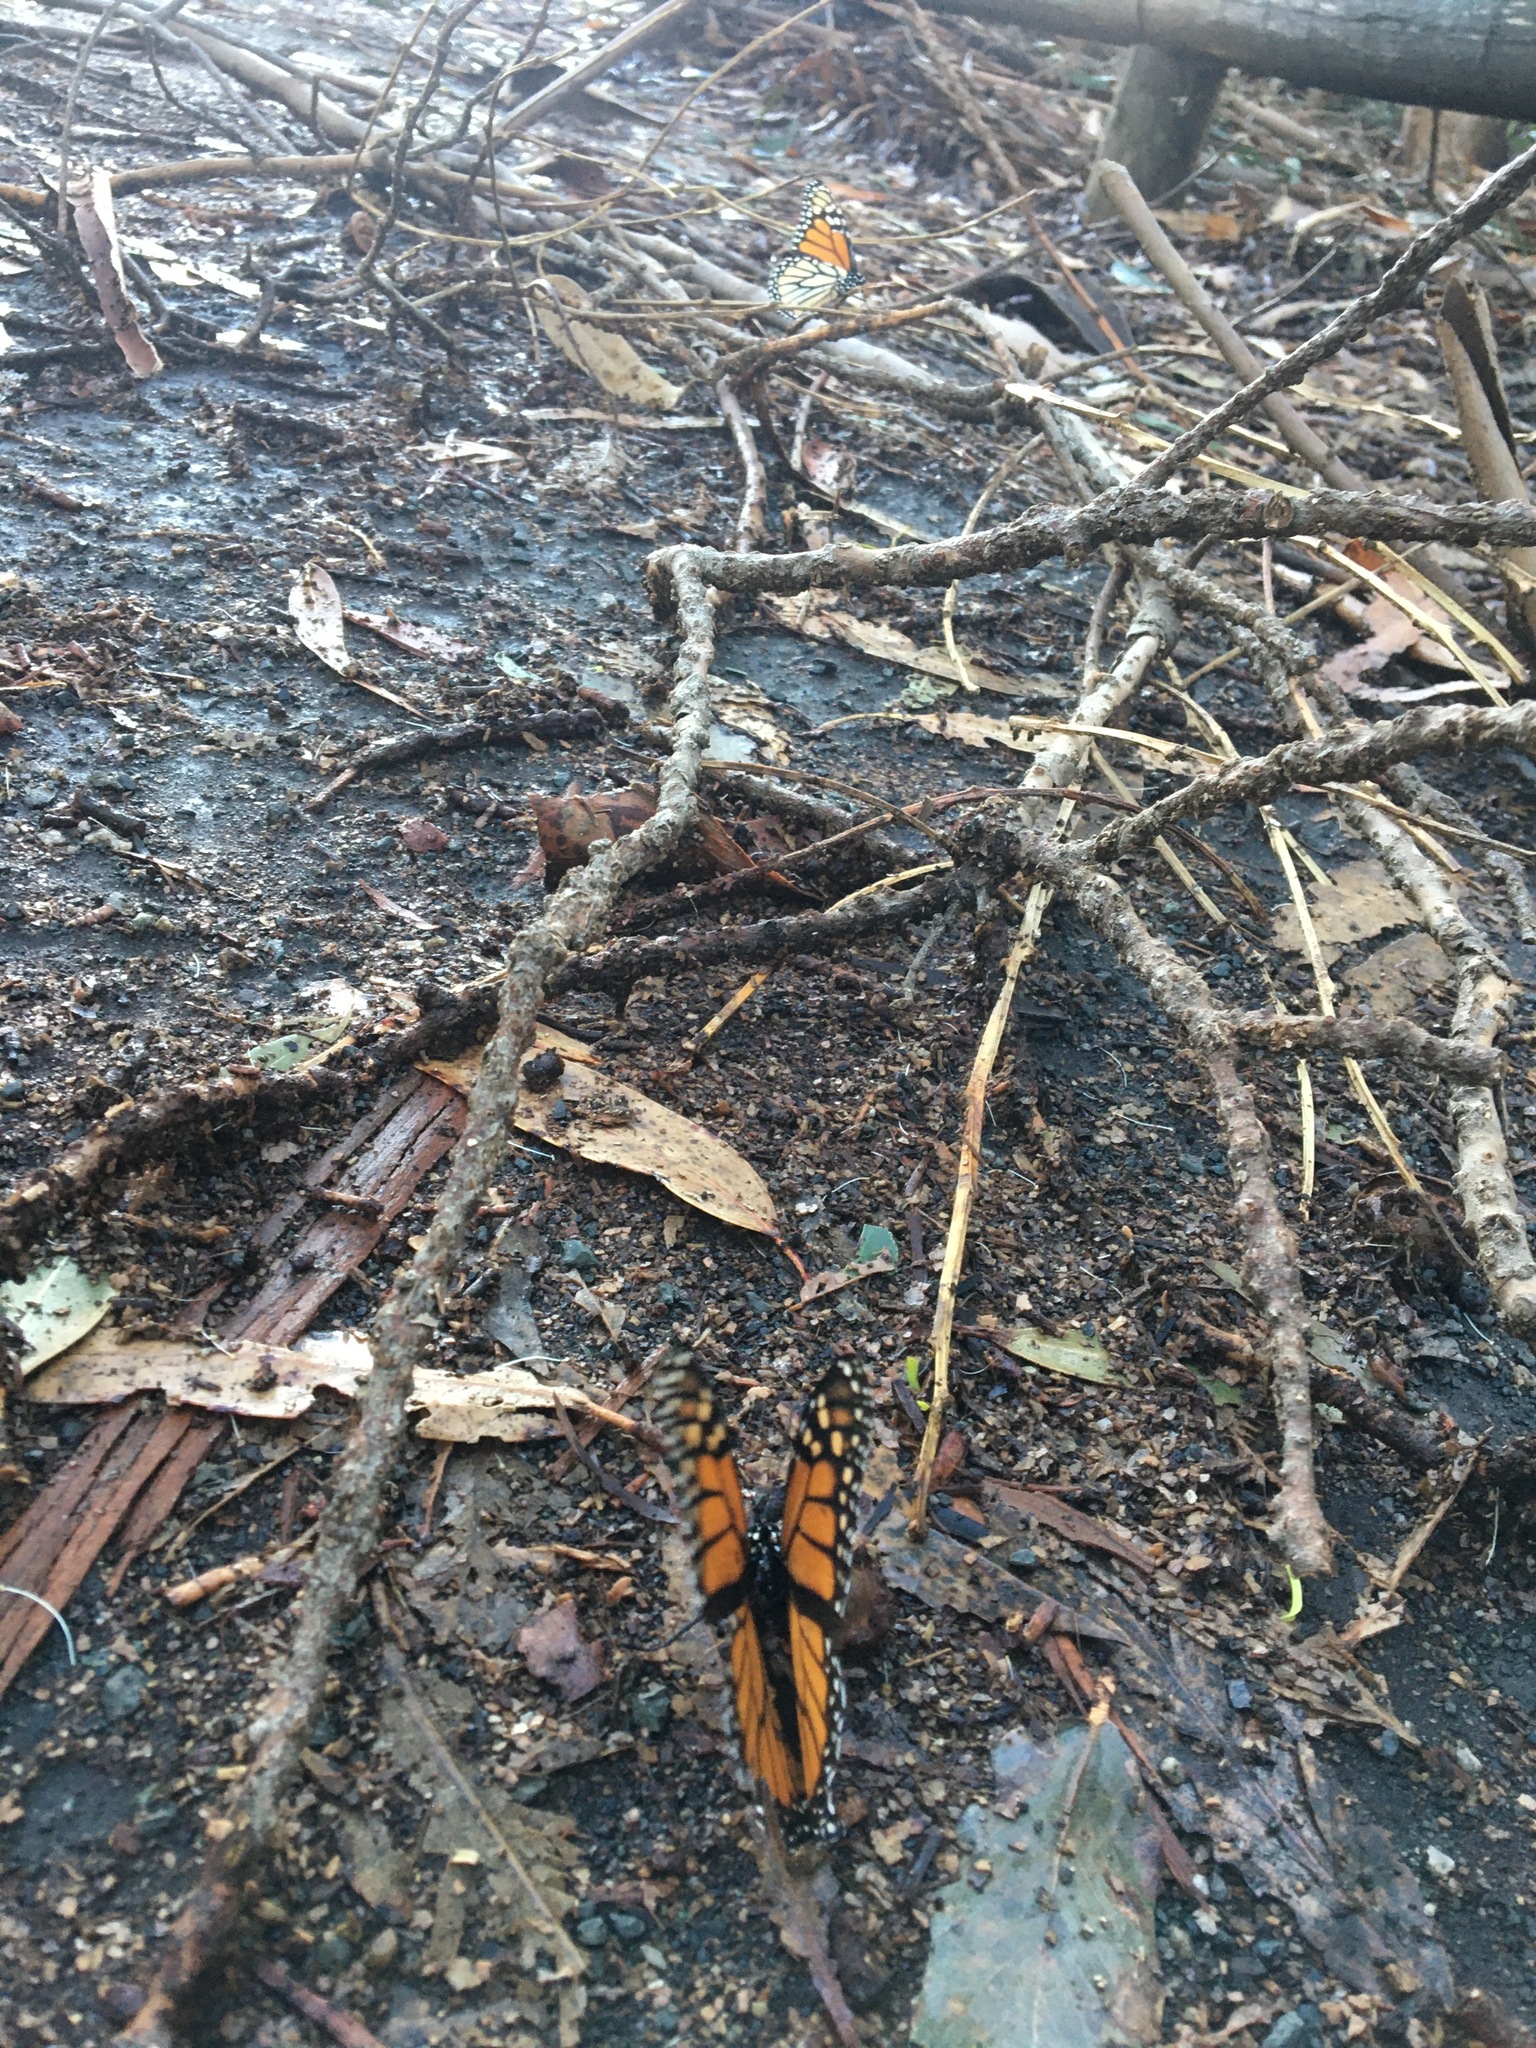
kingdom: Animalia
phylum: Arthropoda
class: Insecta
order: Lepidoptera
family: Nymphalidae
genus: Danaus
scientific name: Danaus plexippus
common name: Monarch
